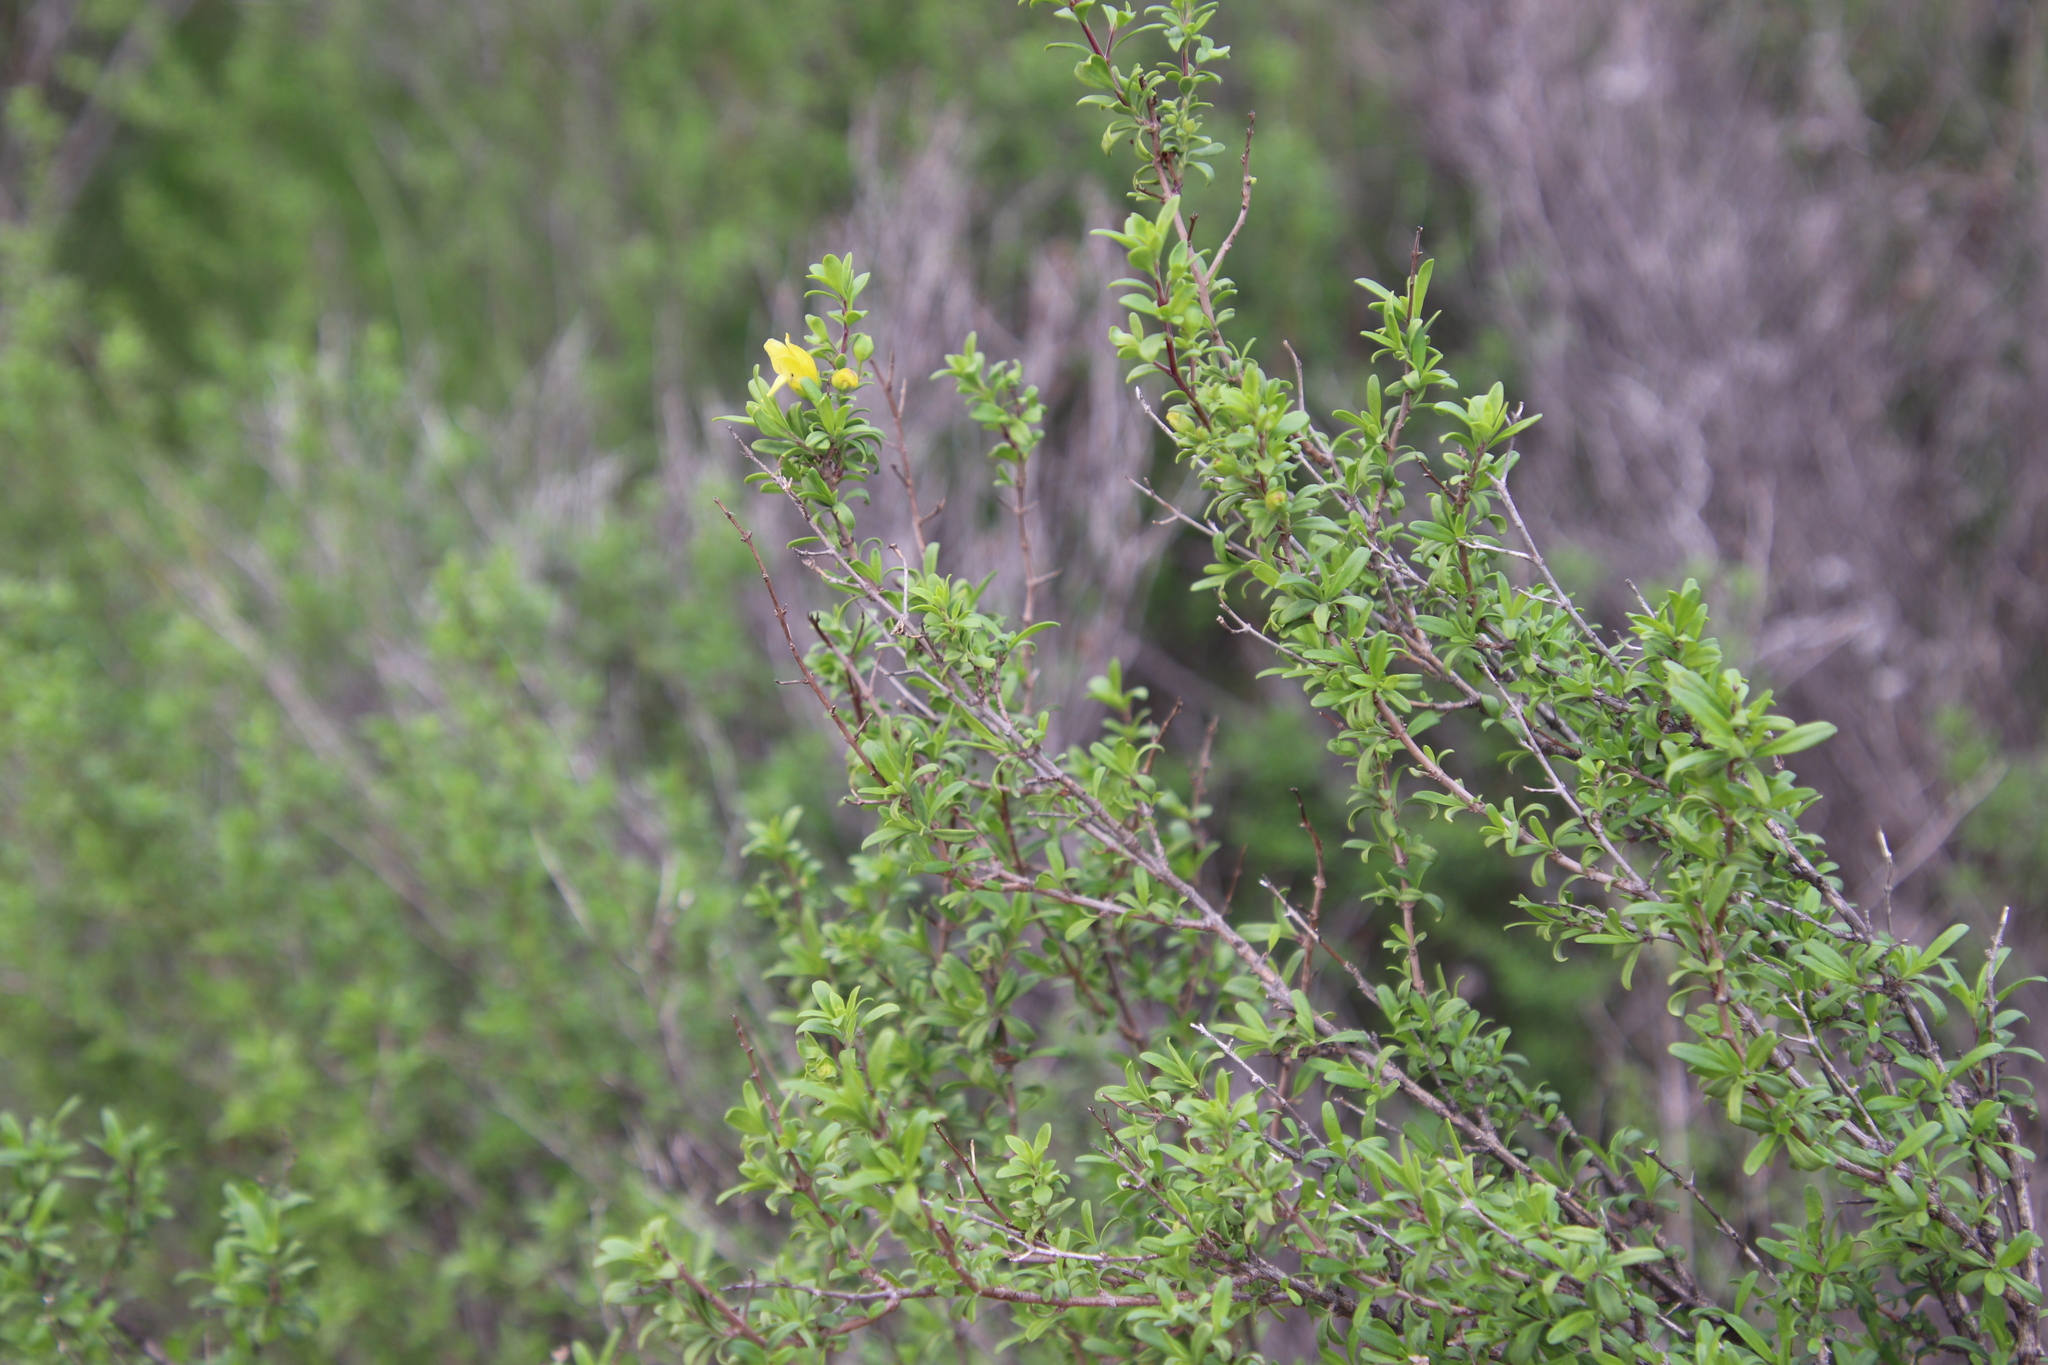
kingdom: Plantae
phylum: Tracheophyta
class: Magnoliopsida
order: Lamiales
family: Plantaginaceae
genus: Keckiella
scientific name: Keckiella antirrhinoides
